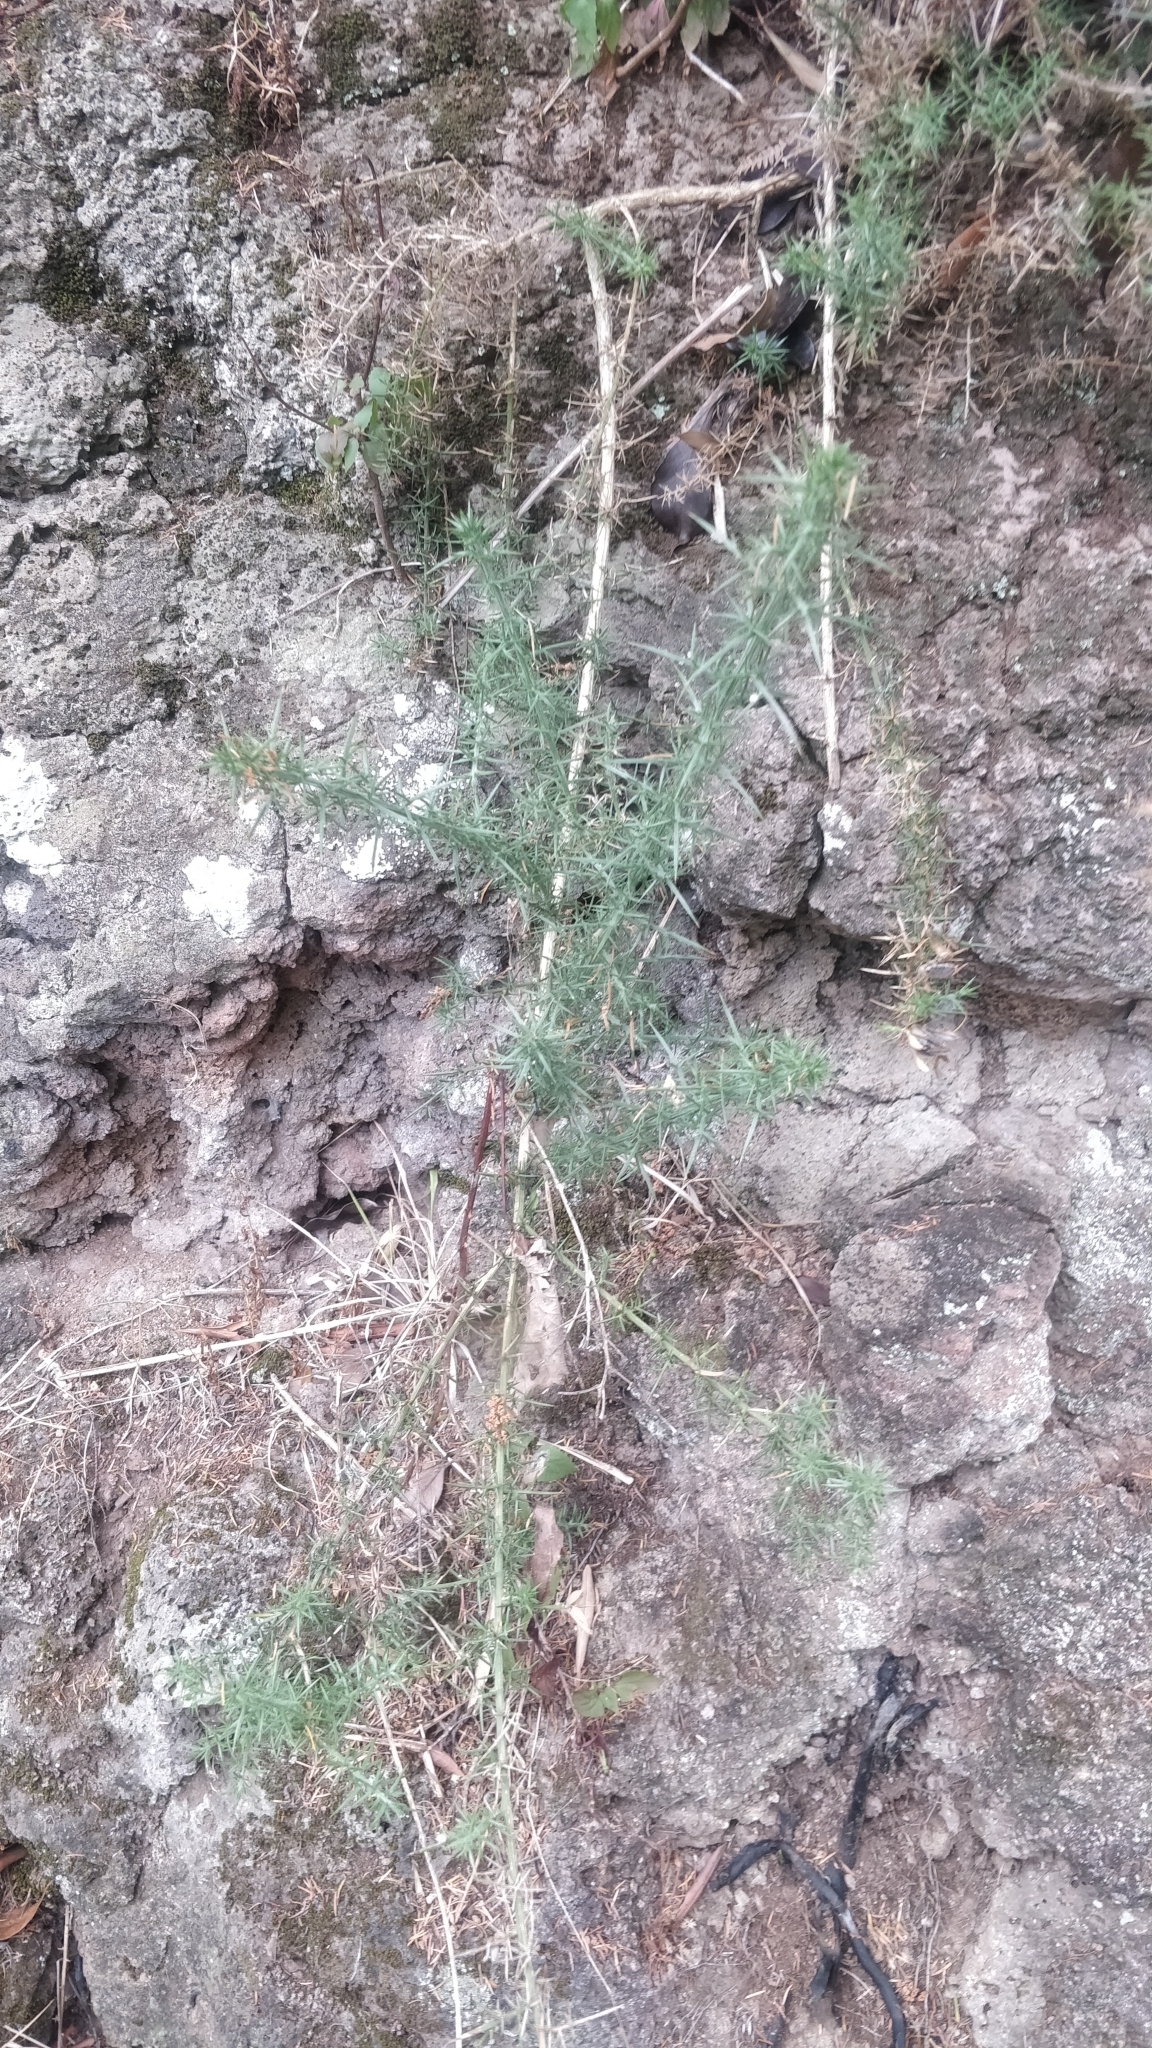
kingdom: Plantae
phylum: Tracheophyta
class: Magnoliopsida
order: Fabales
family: Fabaceae
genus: Ulex
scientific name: Ulex europaeus
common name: Common gorse
